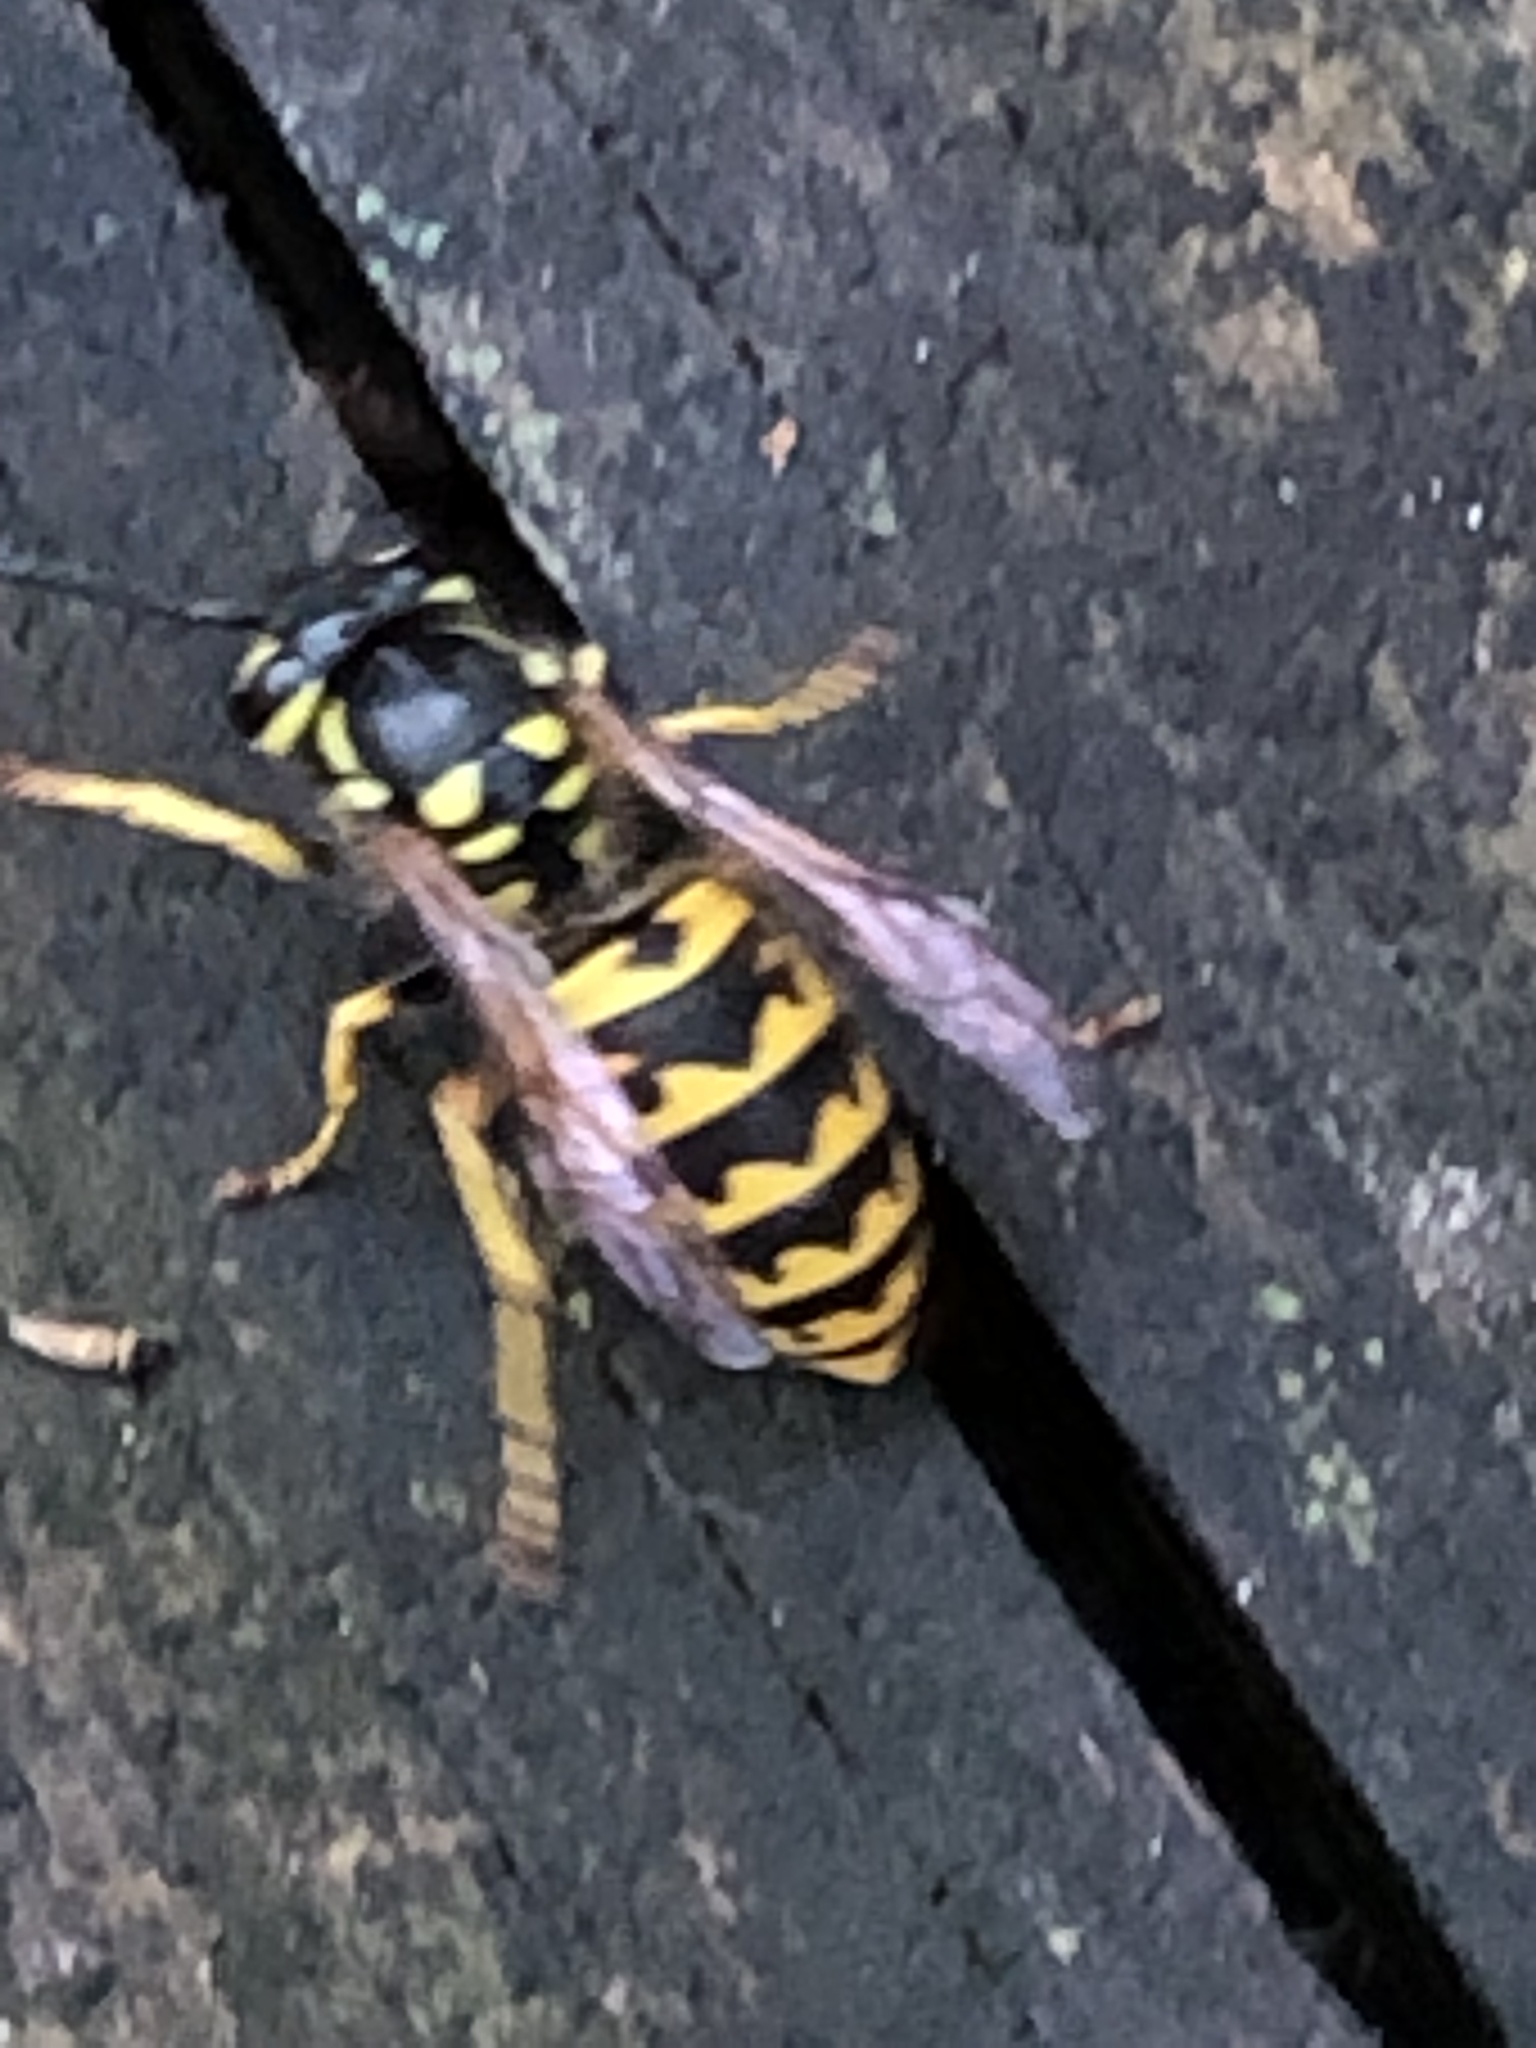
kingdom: Animalia
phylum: Arthropoda
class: Insecta
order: Hymenoptera
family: Vespidae
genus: Vespula
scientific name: Vespula germanica
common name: German wasp
